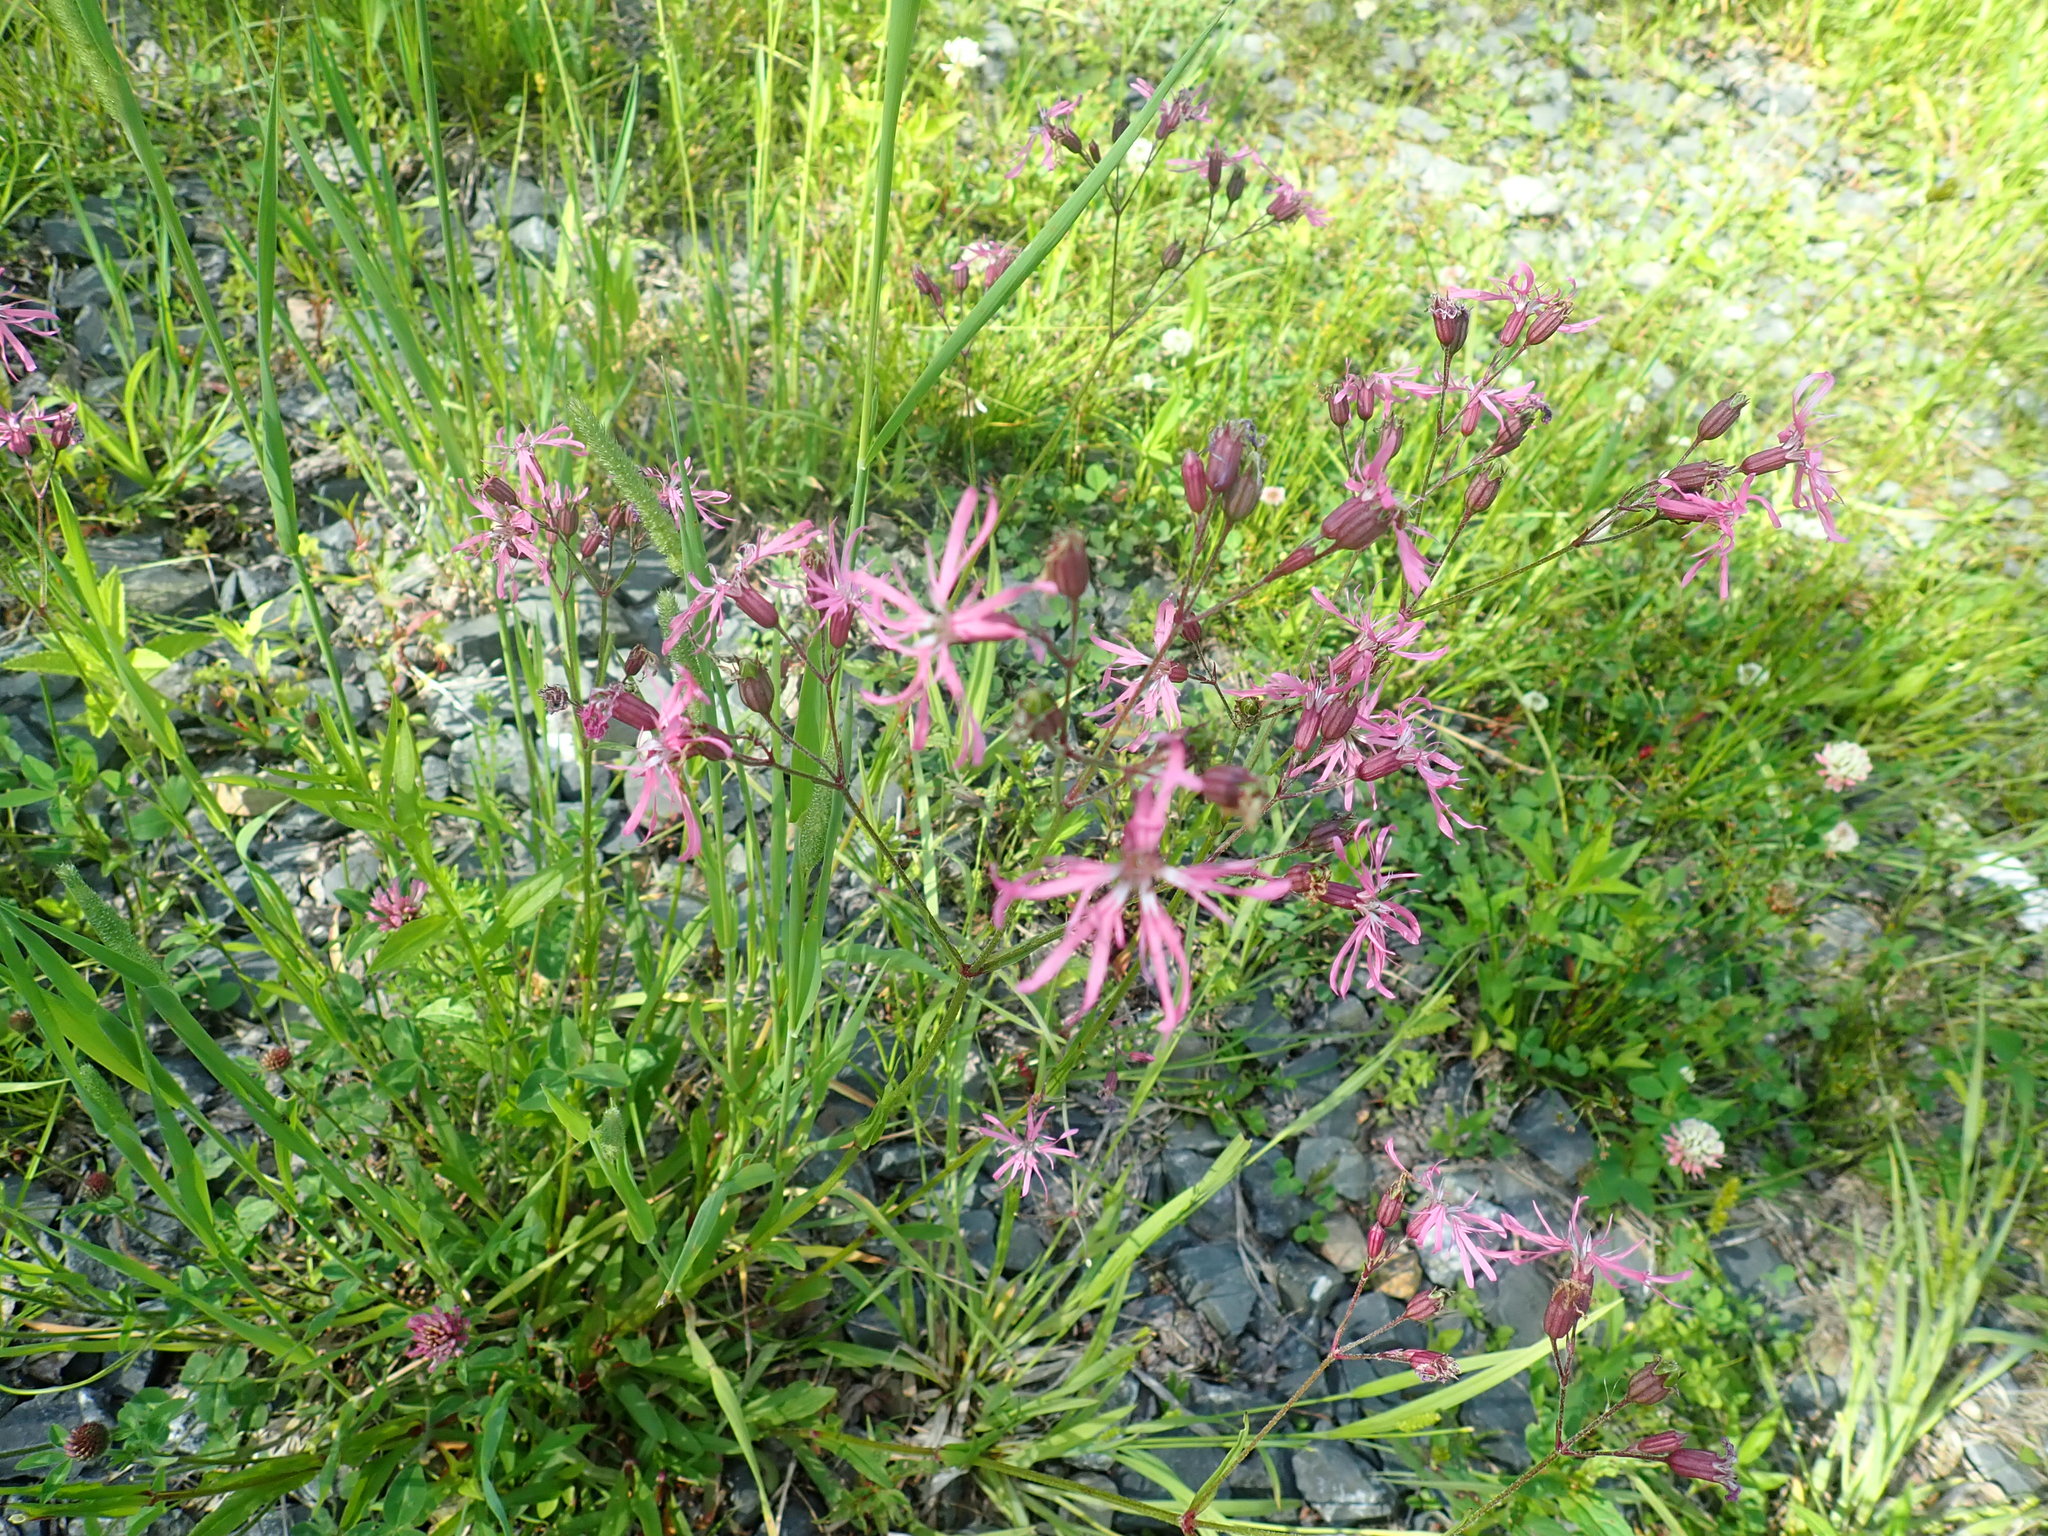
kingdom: Plantae
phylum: Tracheophyta
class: Magnoliopsida
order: Caryophyllales
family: Caryophyllaceae
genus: Silene
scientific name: Silene flos-cuculi
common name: Ragged-robin
